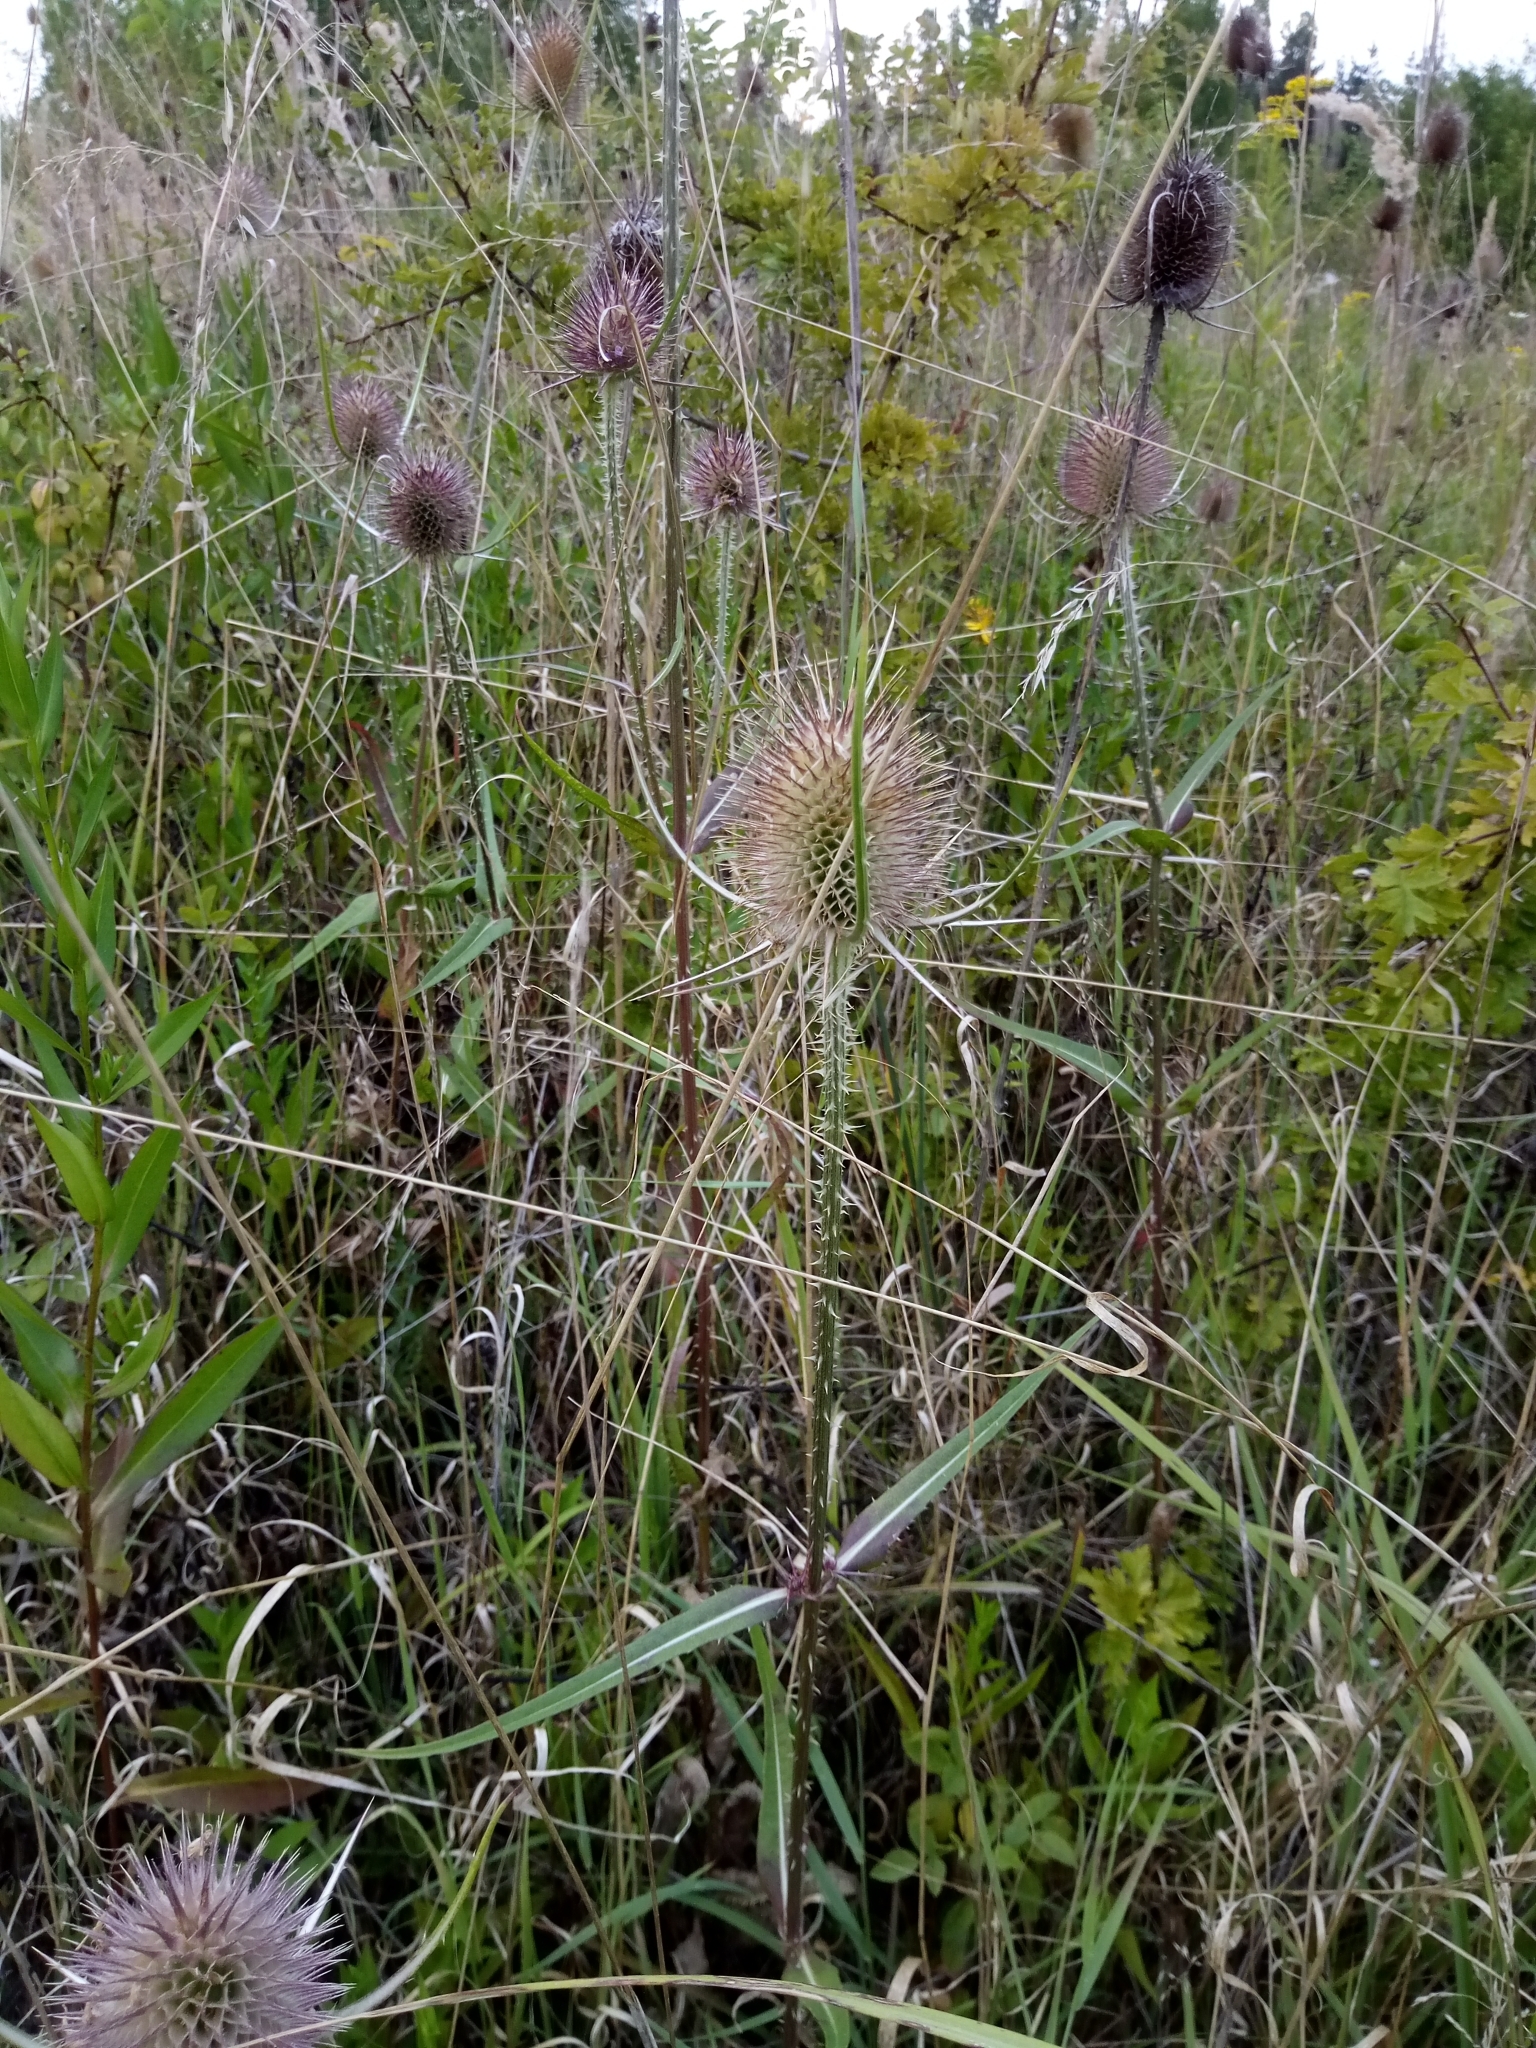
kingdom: Plantae
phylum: Tracheophyta
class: Magnoliopsida
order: Dipsacales
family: Caprifoliaceae
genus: Dipsacus
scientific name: Dipsacus fullonum
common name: Teasel
